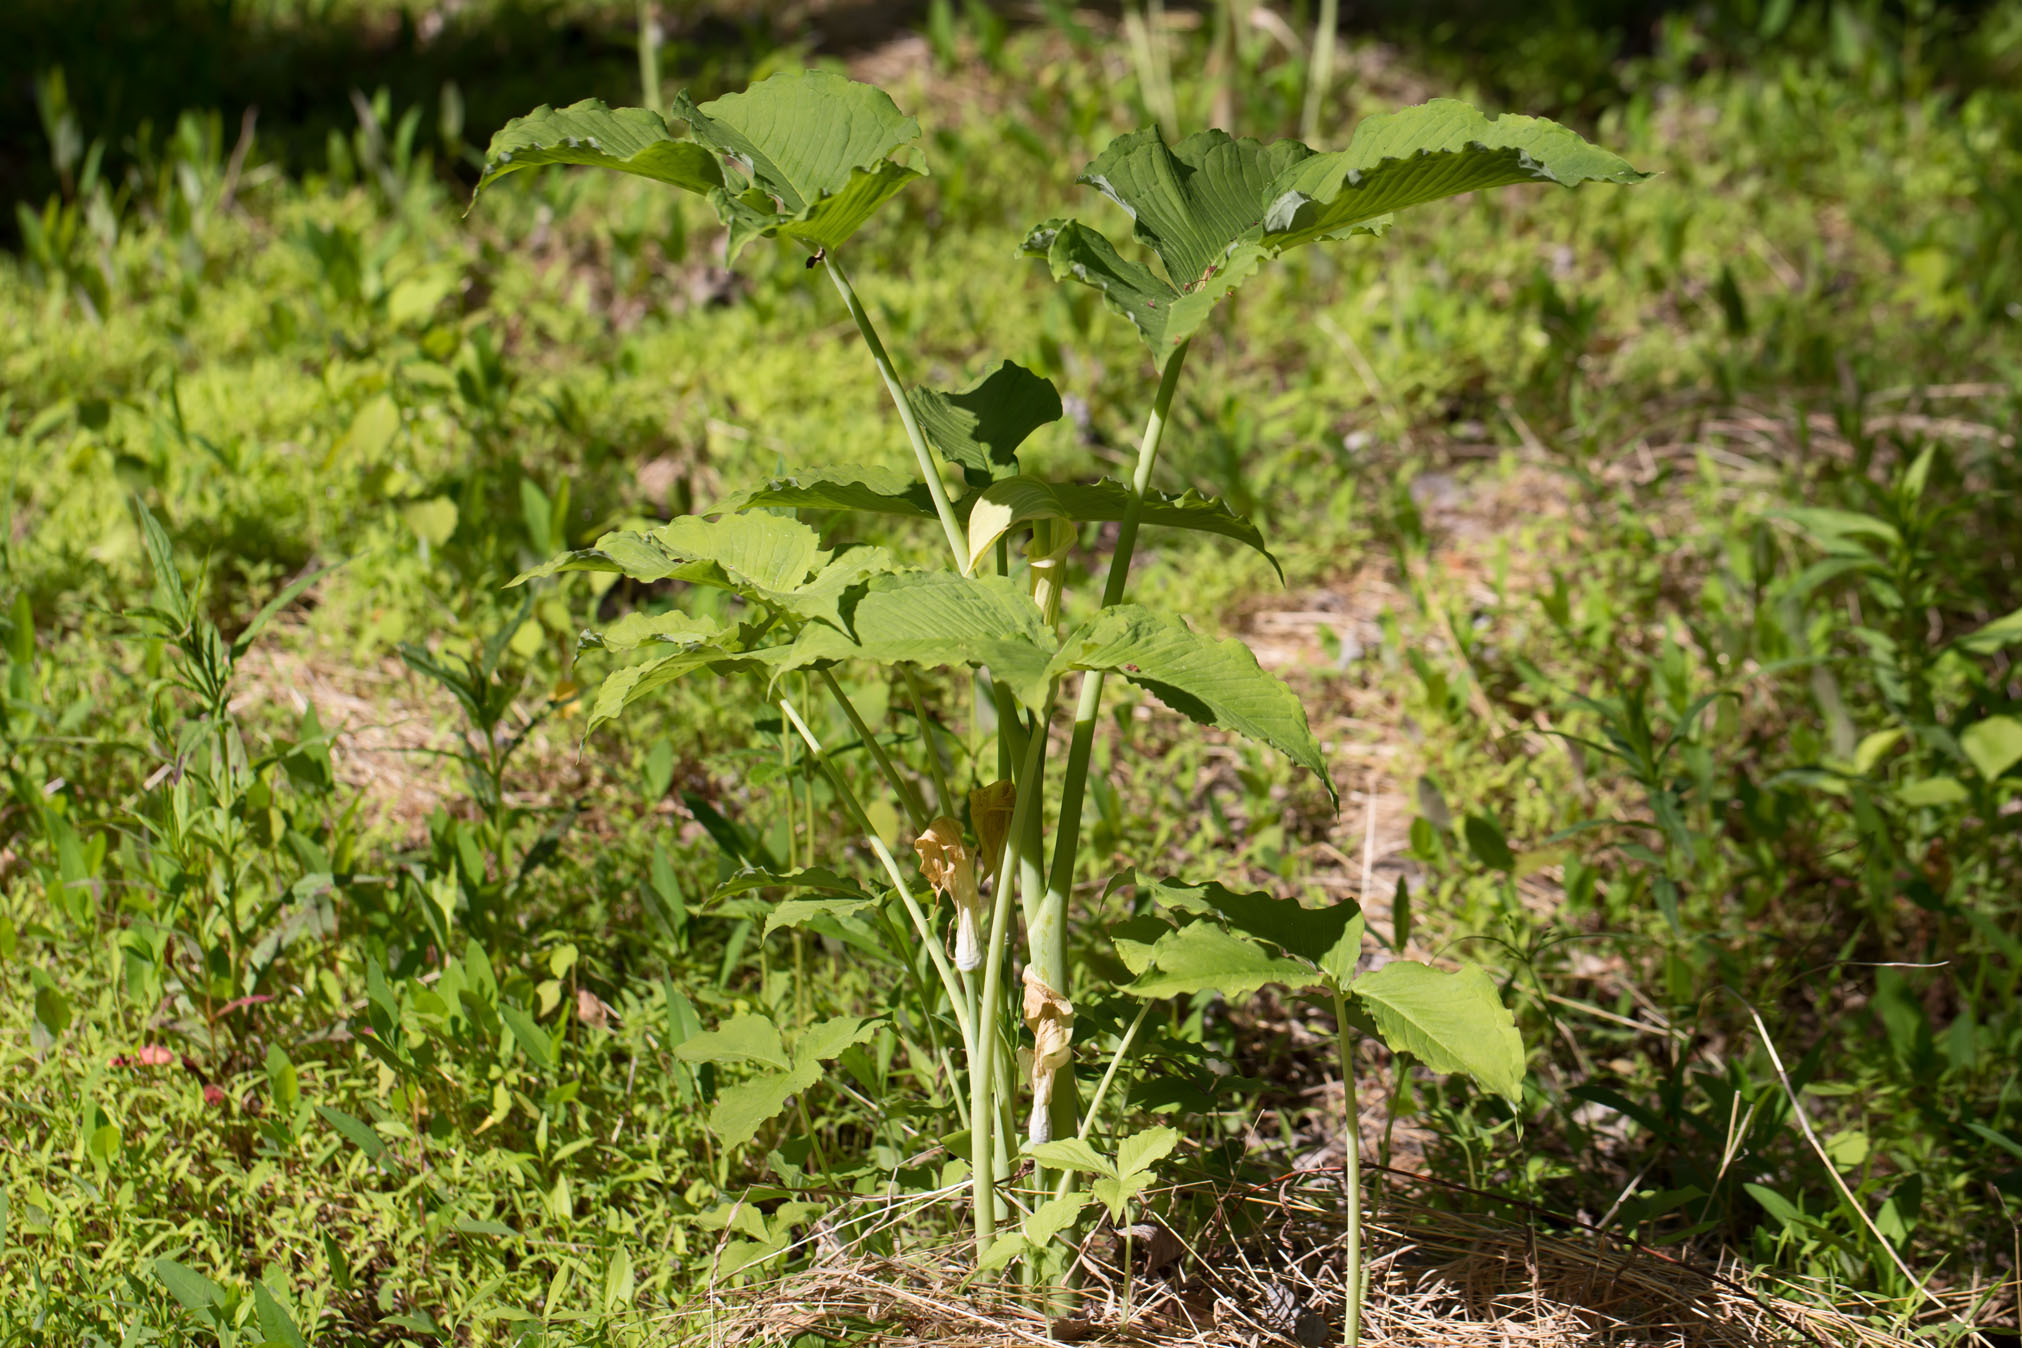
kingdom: Plantae
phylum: Tracheophyta
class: Liliopsida
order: Alismatales
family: Araceae
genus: Arisaema
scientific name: Arisaema triphyllum
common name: Jack-in-the-pulpit
